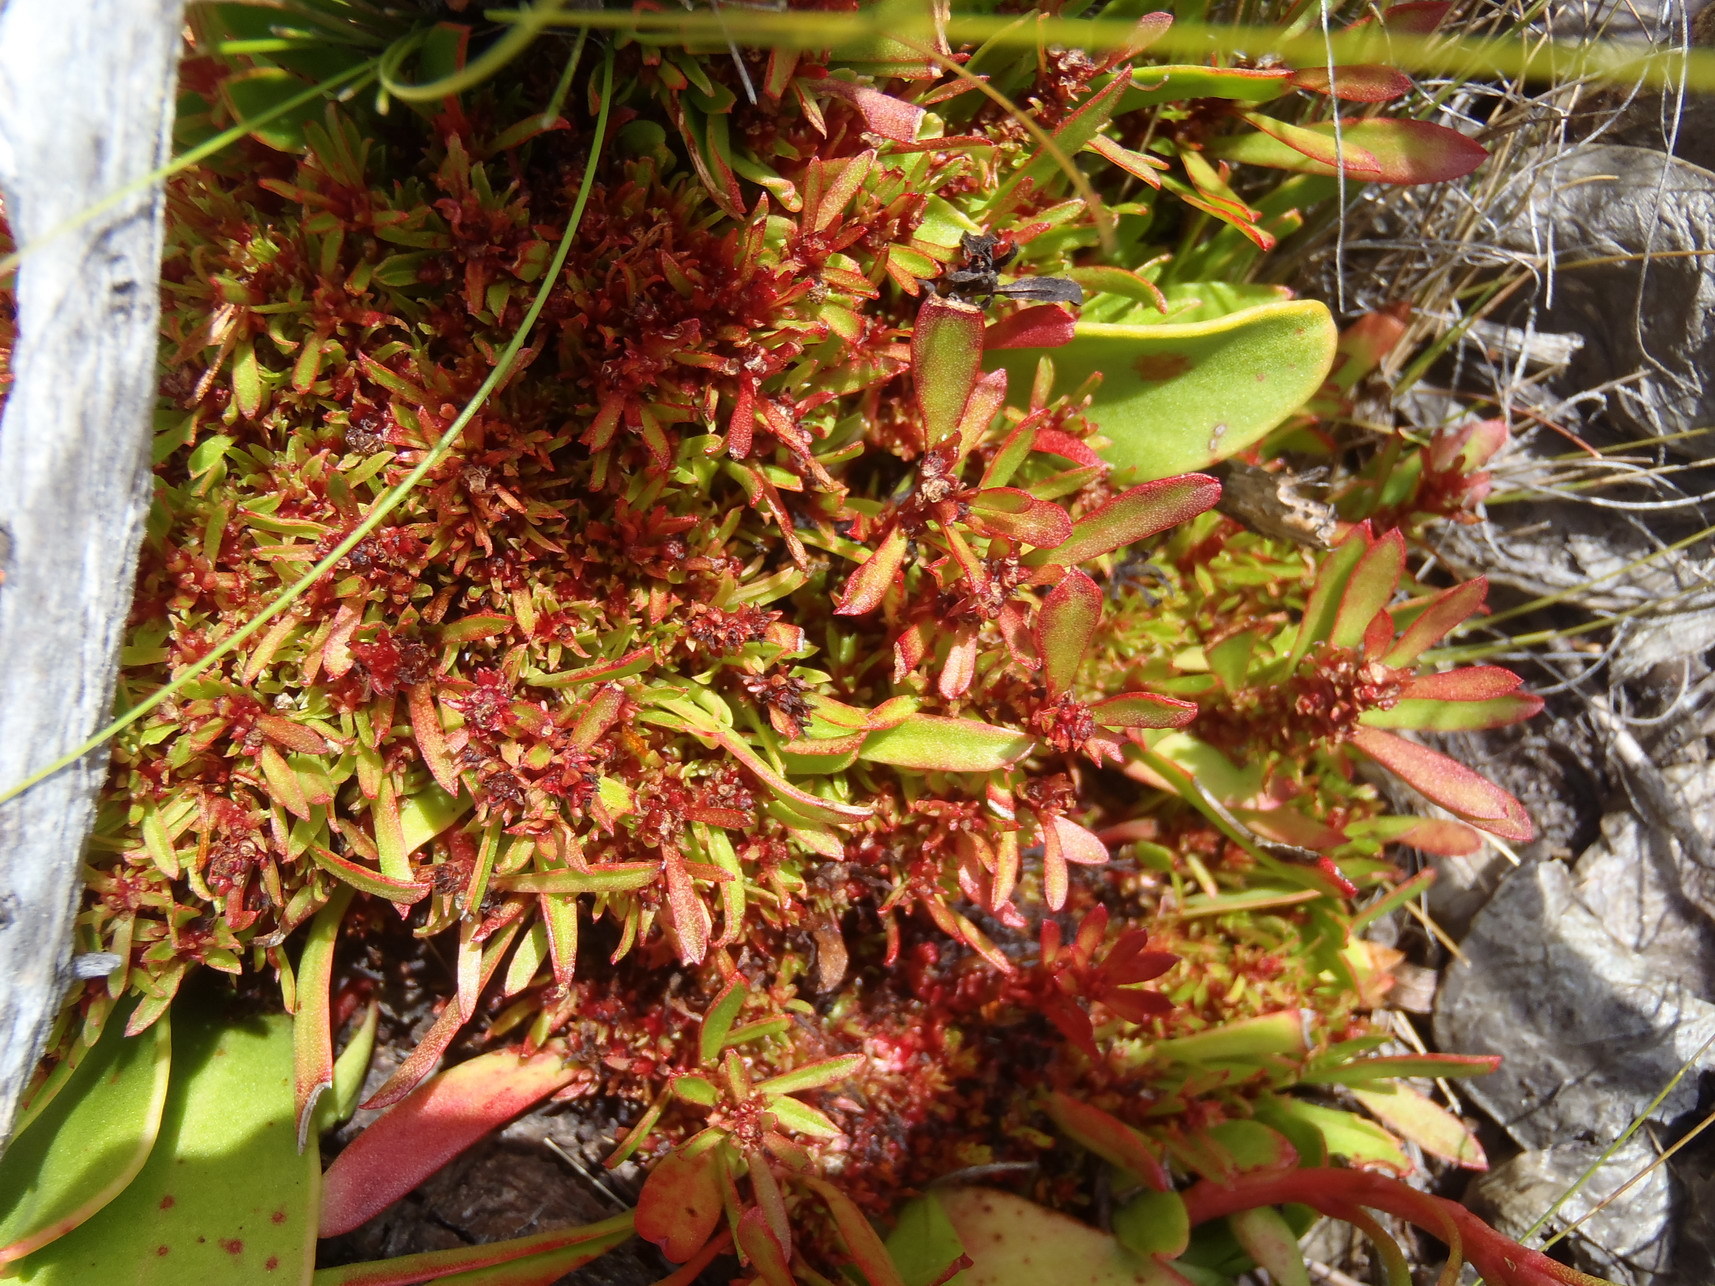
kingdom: Bacteria
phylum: Firmicutes
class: Bacilli
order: Acholeplasmatales
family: Acholeplasmataceae
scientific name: Acholeplasmataceae
